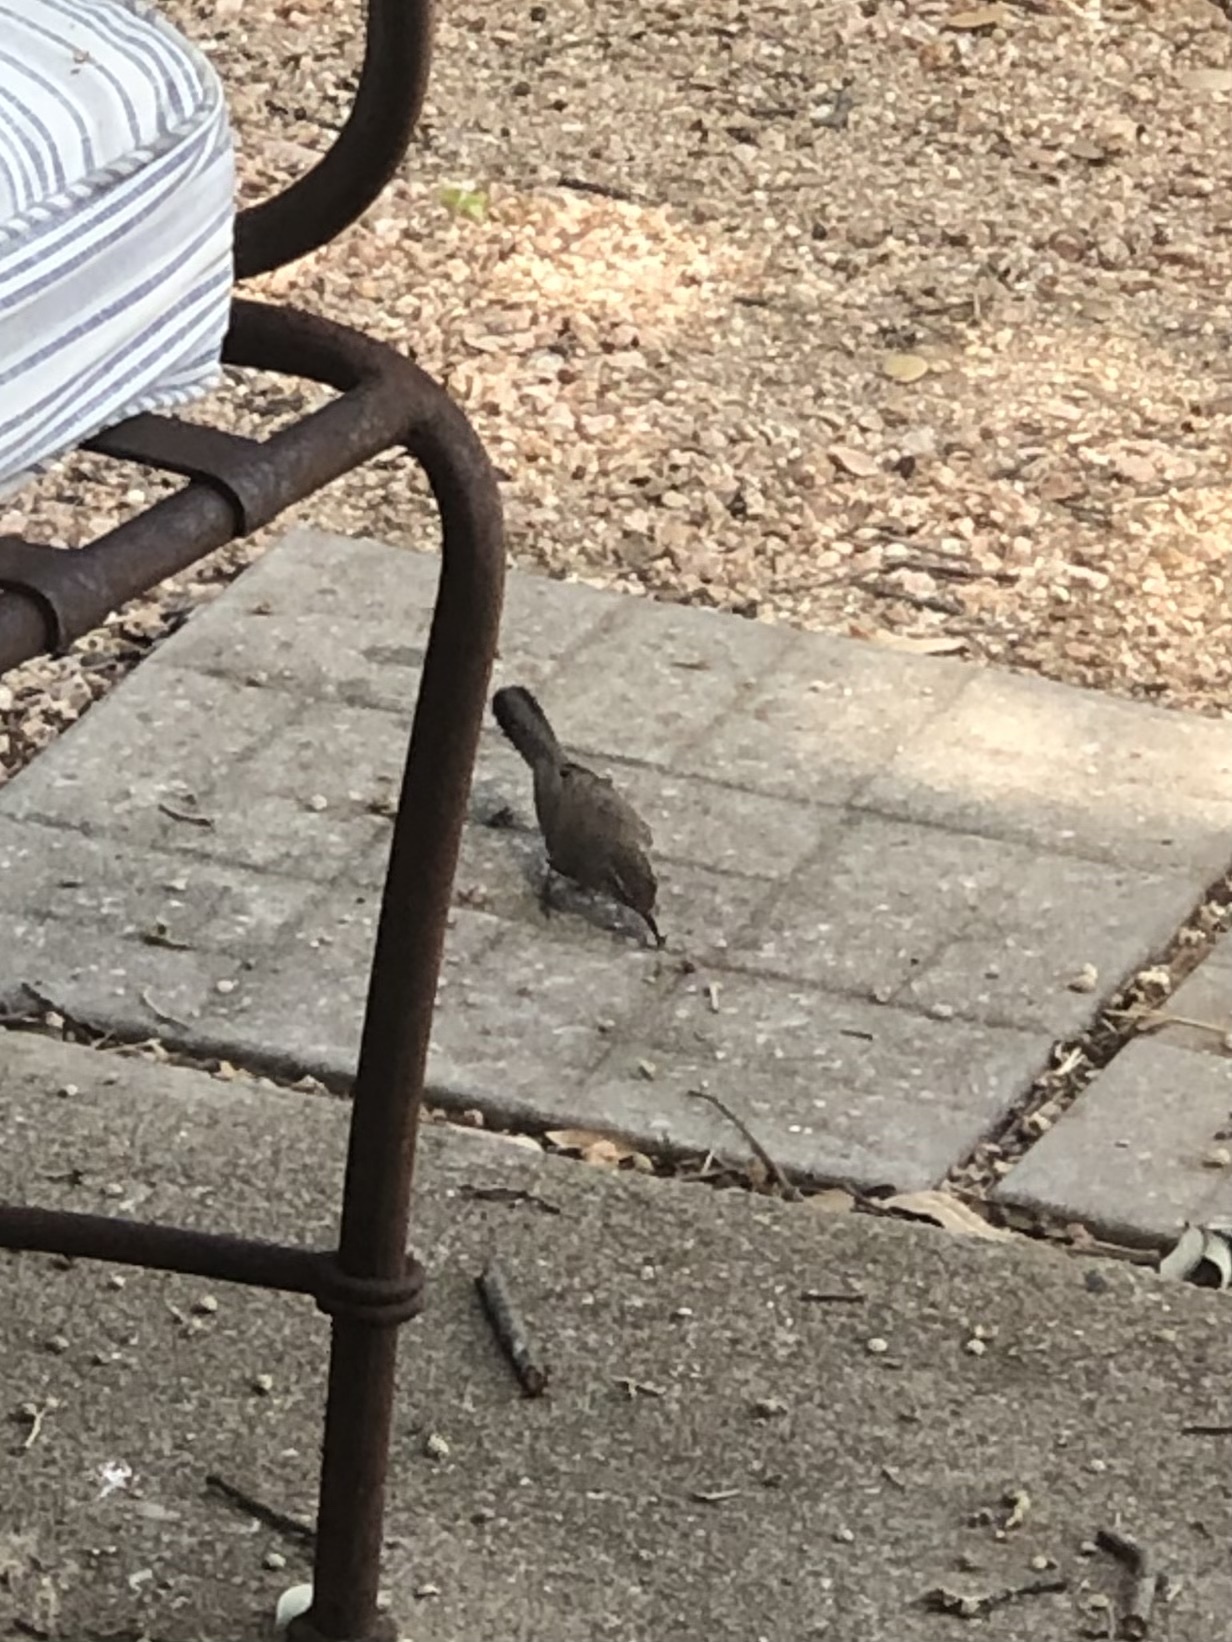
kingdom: Animalia
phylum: Chordata
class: Aves
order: Passeriformes
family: Troglodytidae
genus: Thryomanes
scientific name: Thryomanes bewickii
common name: Bewick's wren
